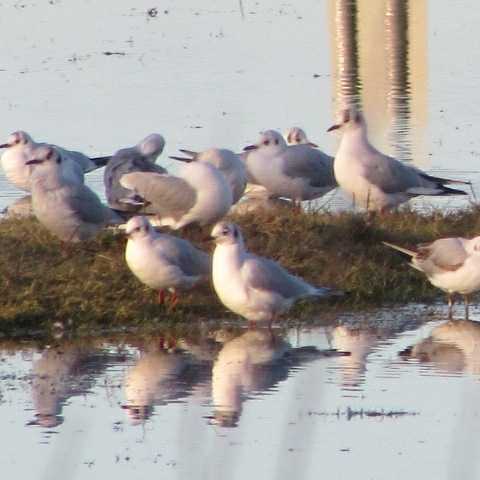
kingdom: Animalia
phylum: Chordata
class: Aves
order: Charadriiformes
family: Laridae
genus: Chroicocephalus
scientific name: Chroicocephalus ridibundus
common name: Black-headed gull
